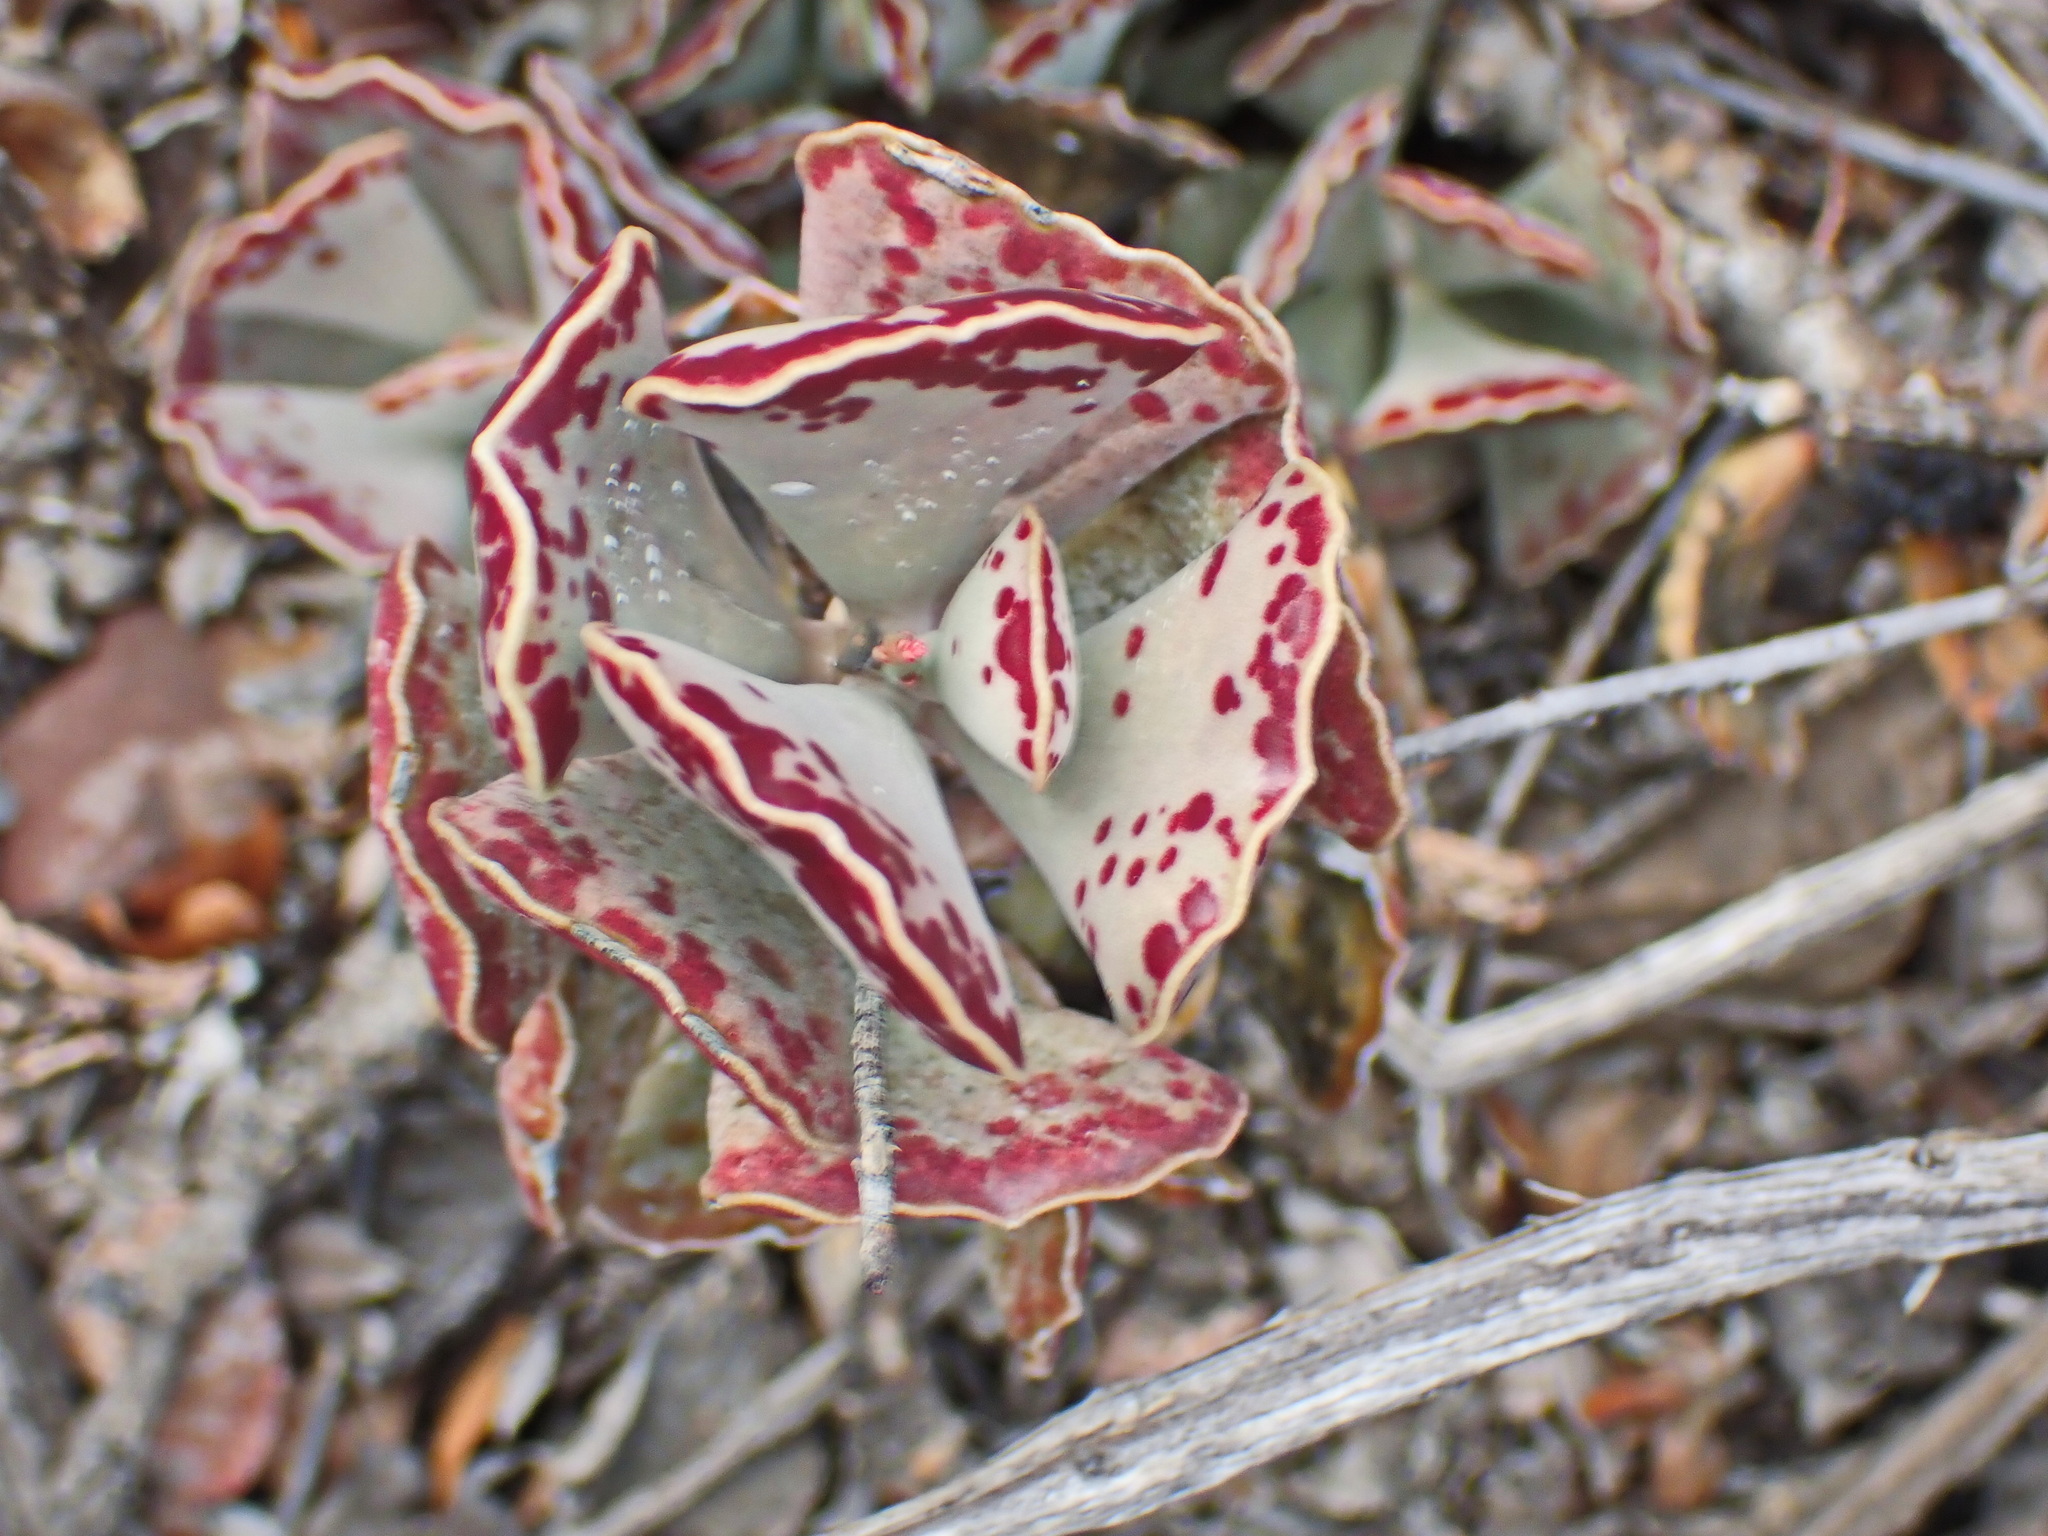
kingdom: Plantae
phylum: Tracheophyta
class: Magnoliopsida
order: Saxifragales
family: Crassulaceae
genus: Adromischus
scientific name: Adromischus triflorus
